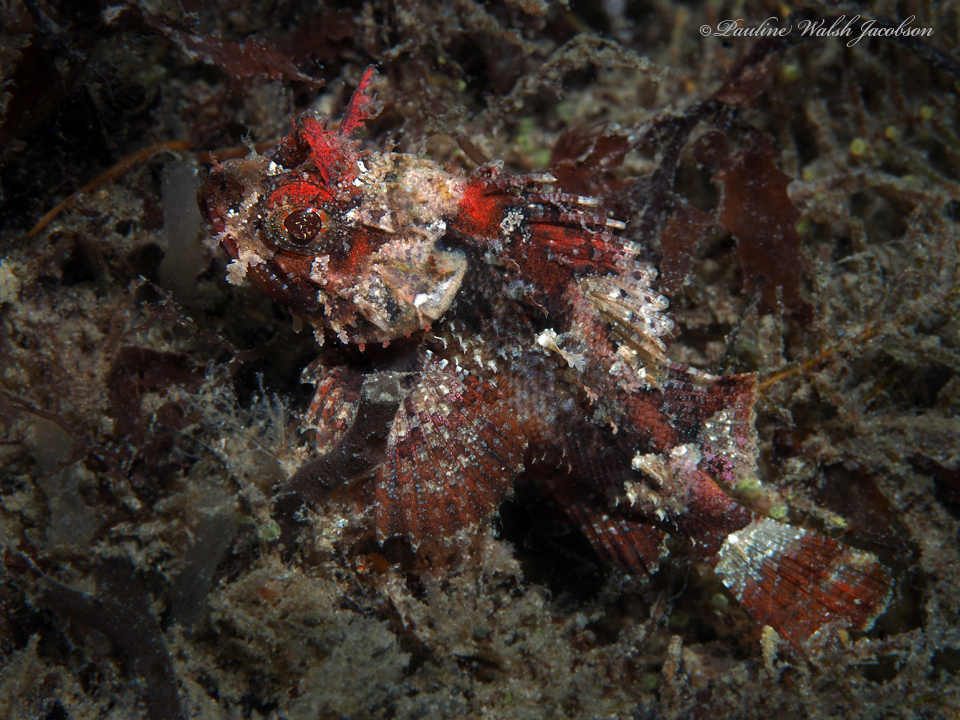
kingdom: Animalia
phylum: Chordata
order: Scorpaeniformes
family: Scorpaenidae
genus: Scorpaena
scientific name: Scorpaena brasiliensis
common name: Barbfish
